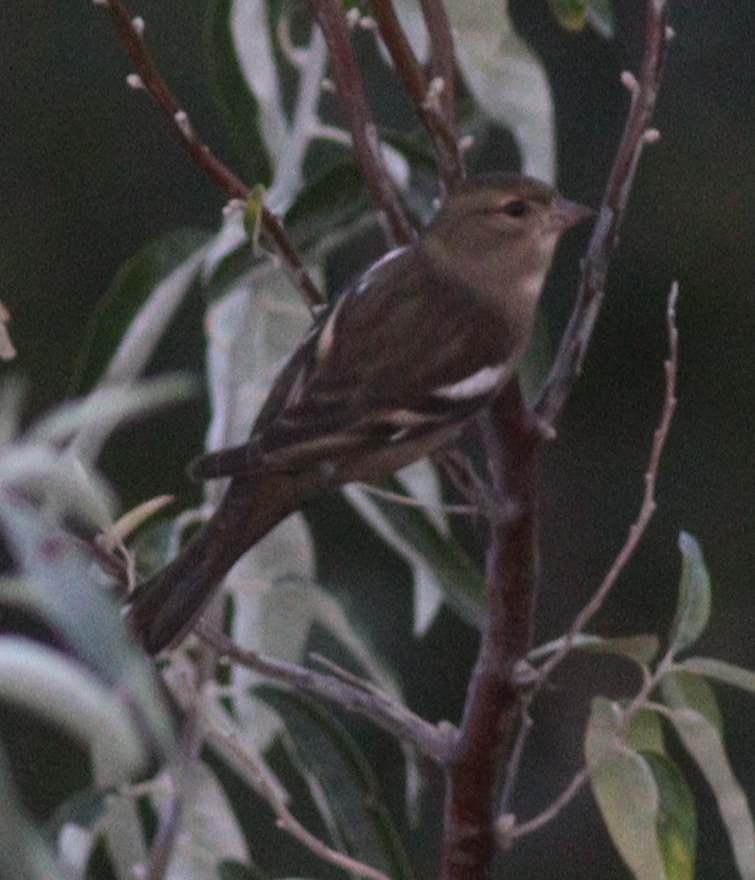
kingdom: Animalia
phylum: Chordata
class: Aves
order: Passeriformes
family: Fringillidae
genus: Fringilla
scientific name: Fringilla coelebs
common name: Common chaffinch
